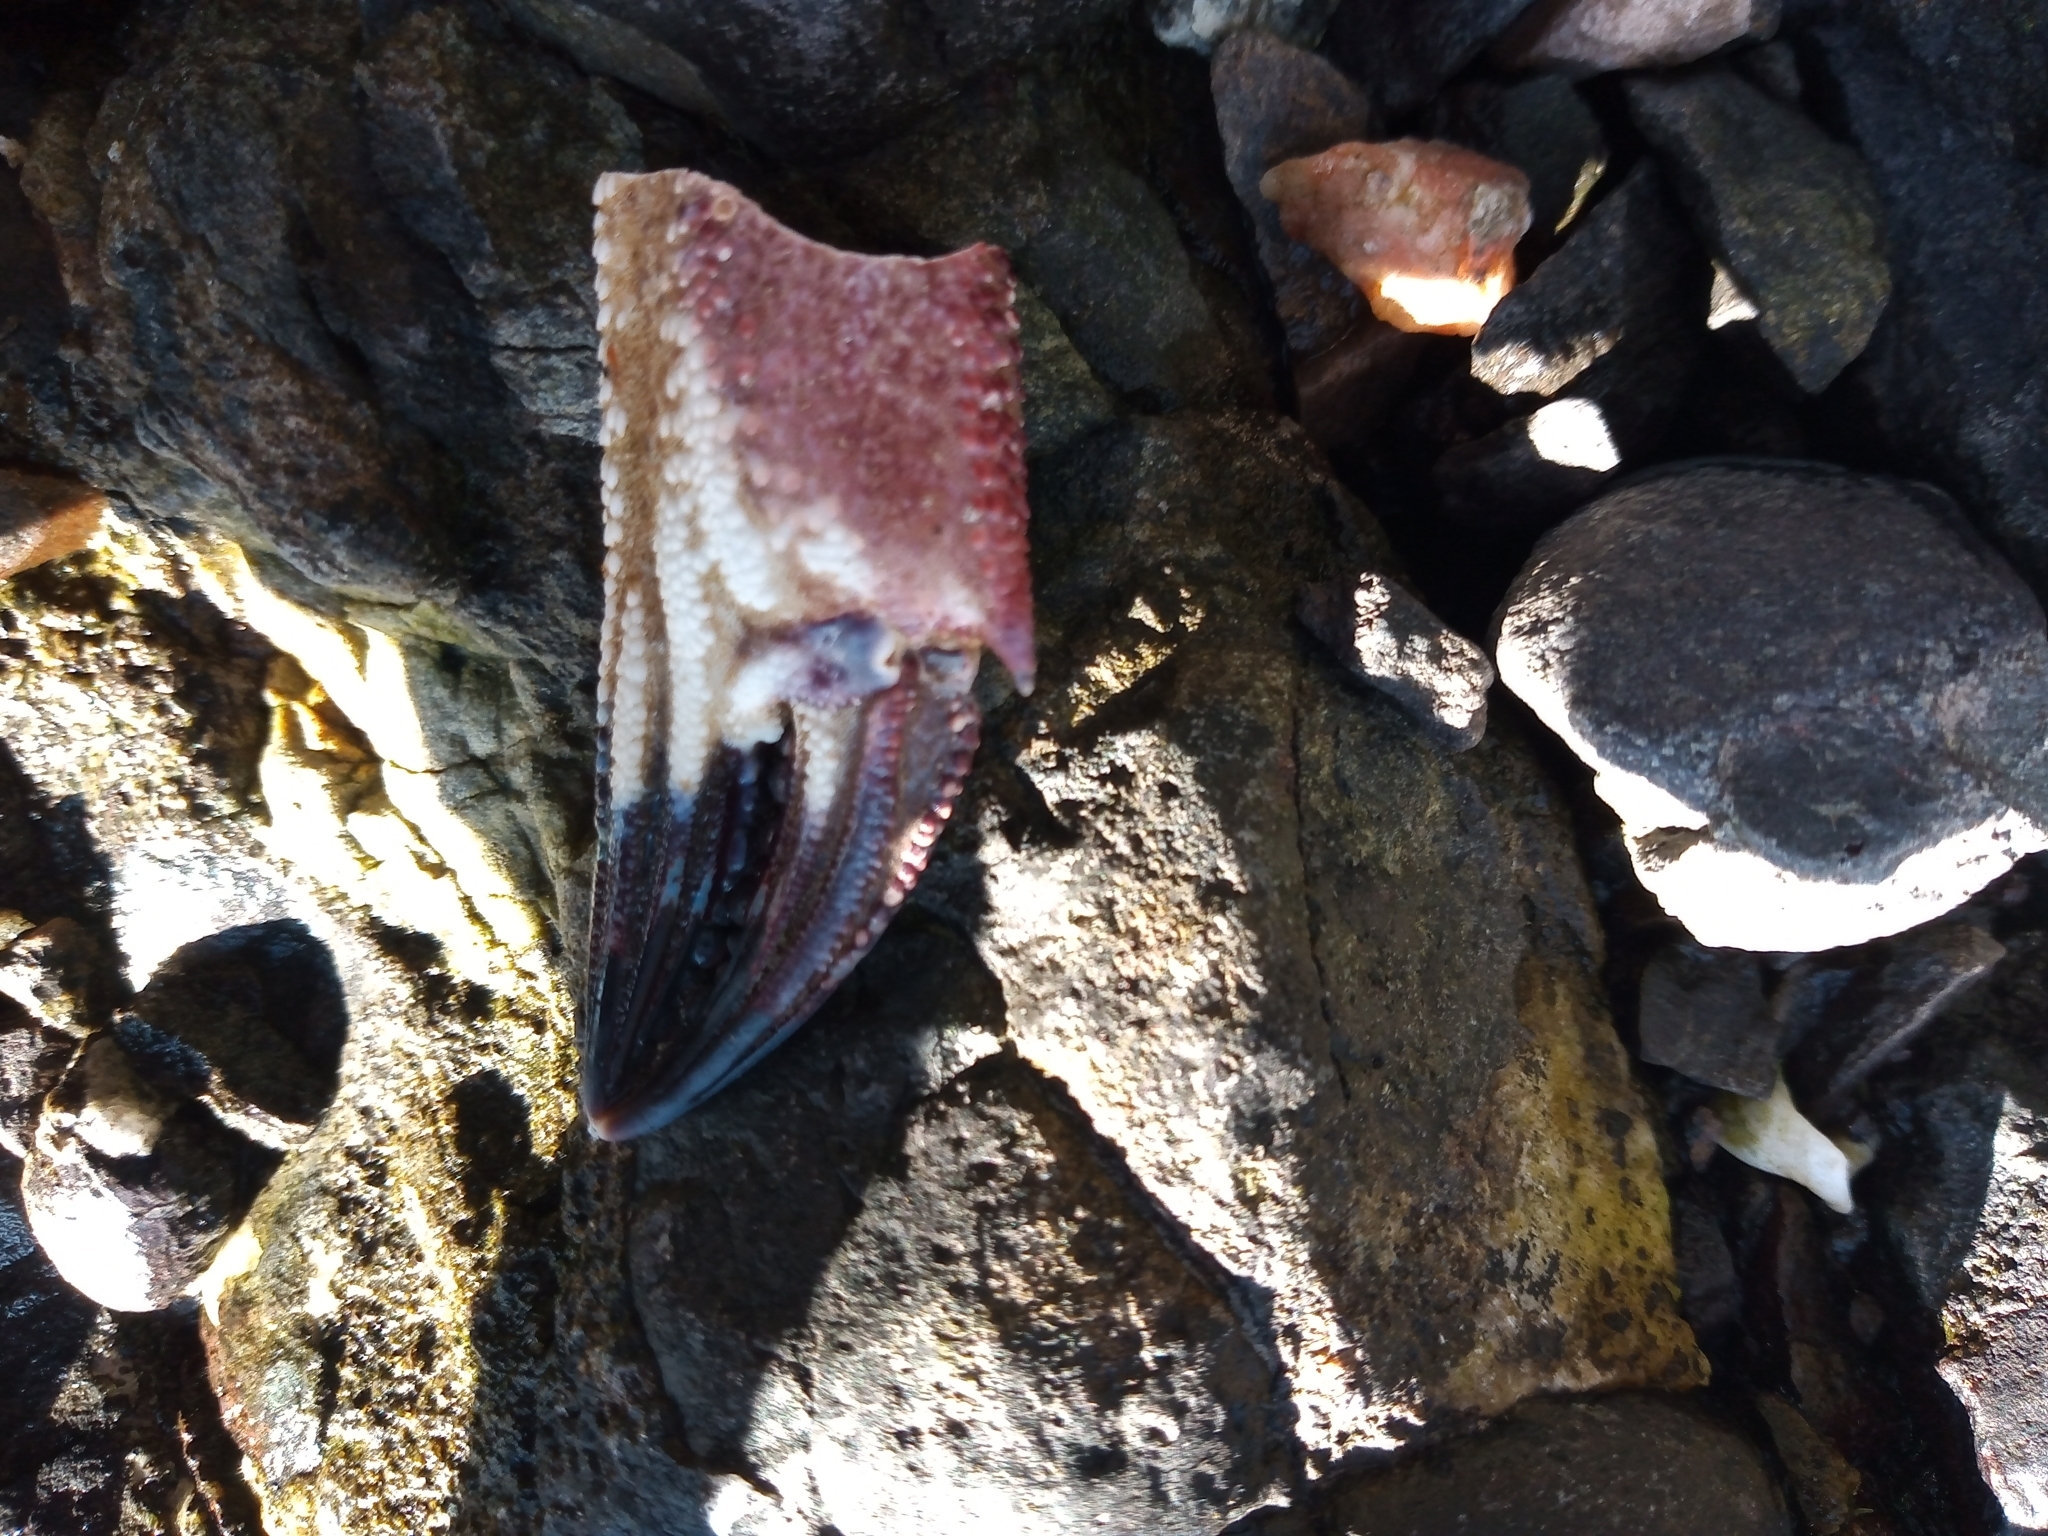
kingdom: Animalia
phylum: Arthropoda
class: Malacostraca
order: Decapoda
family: Polybiidae
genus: Necora
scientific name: Necora puber
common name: Velvet swimming crab
